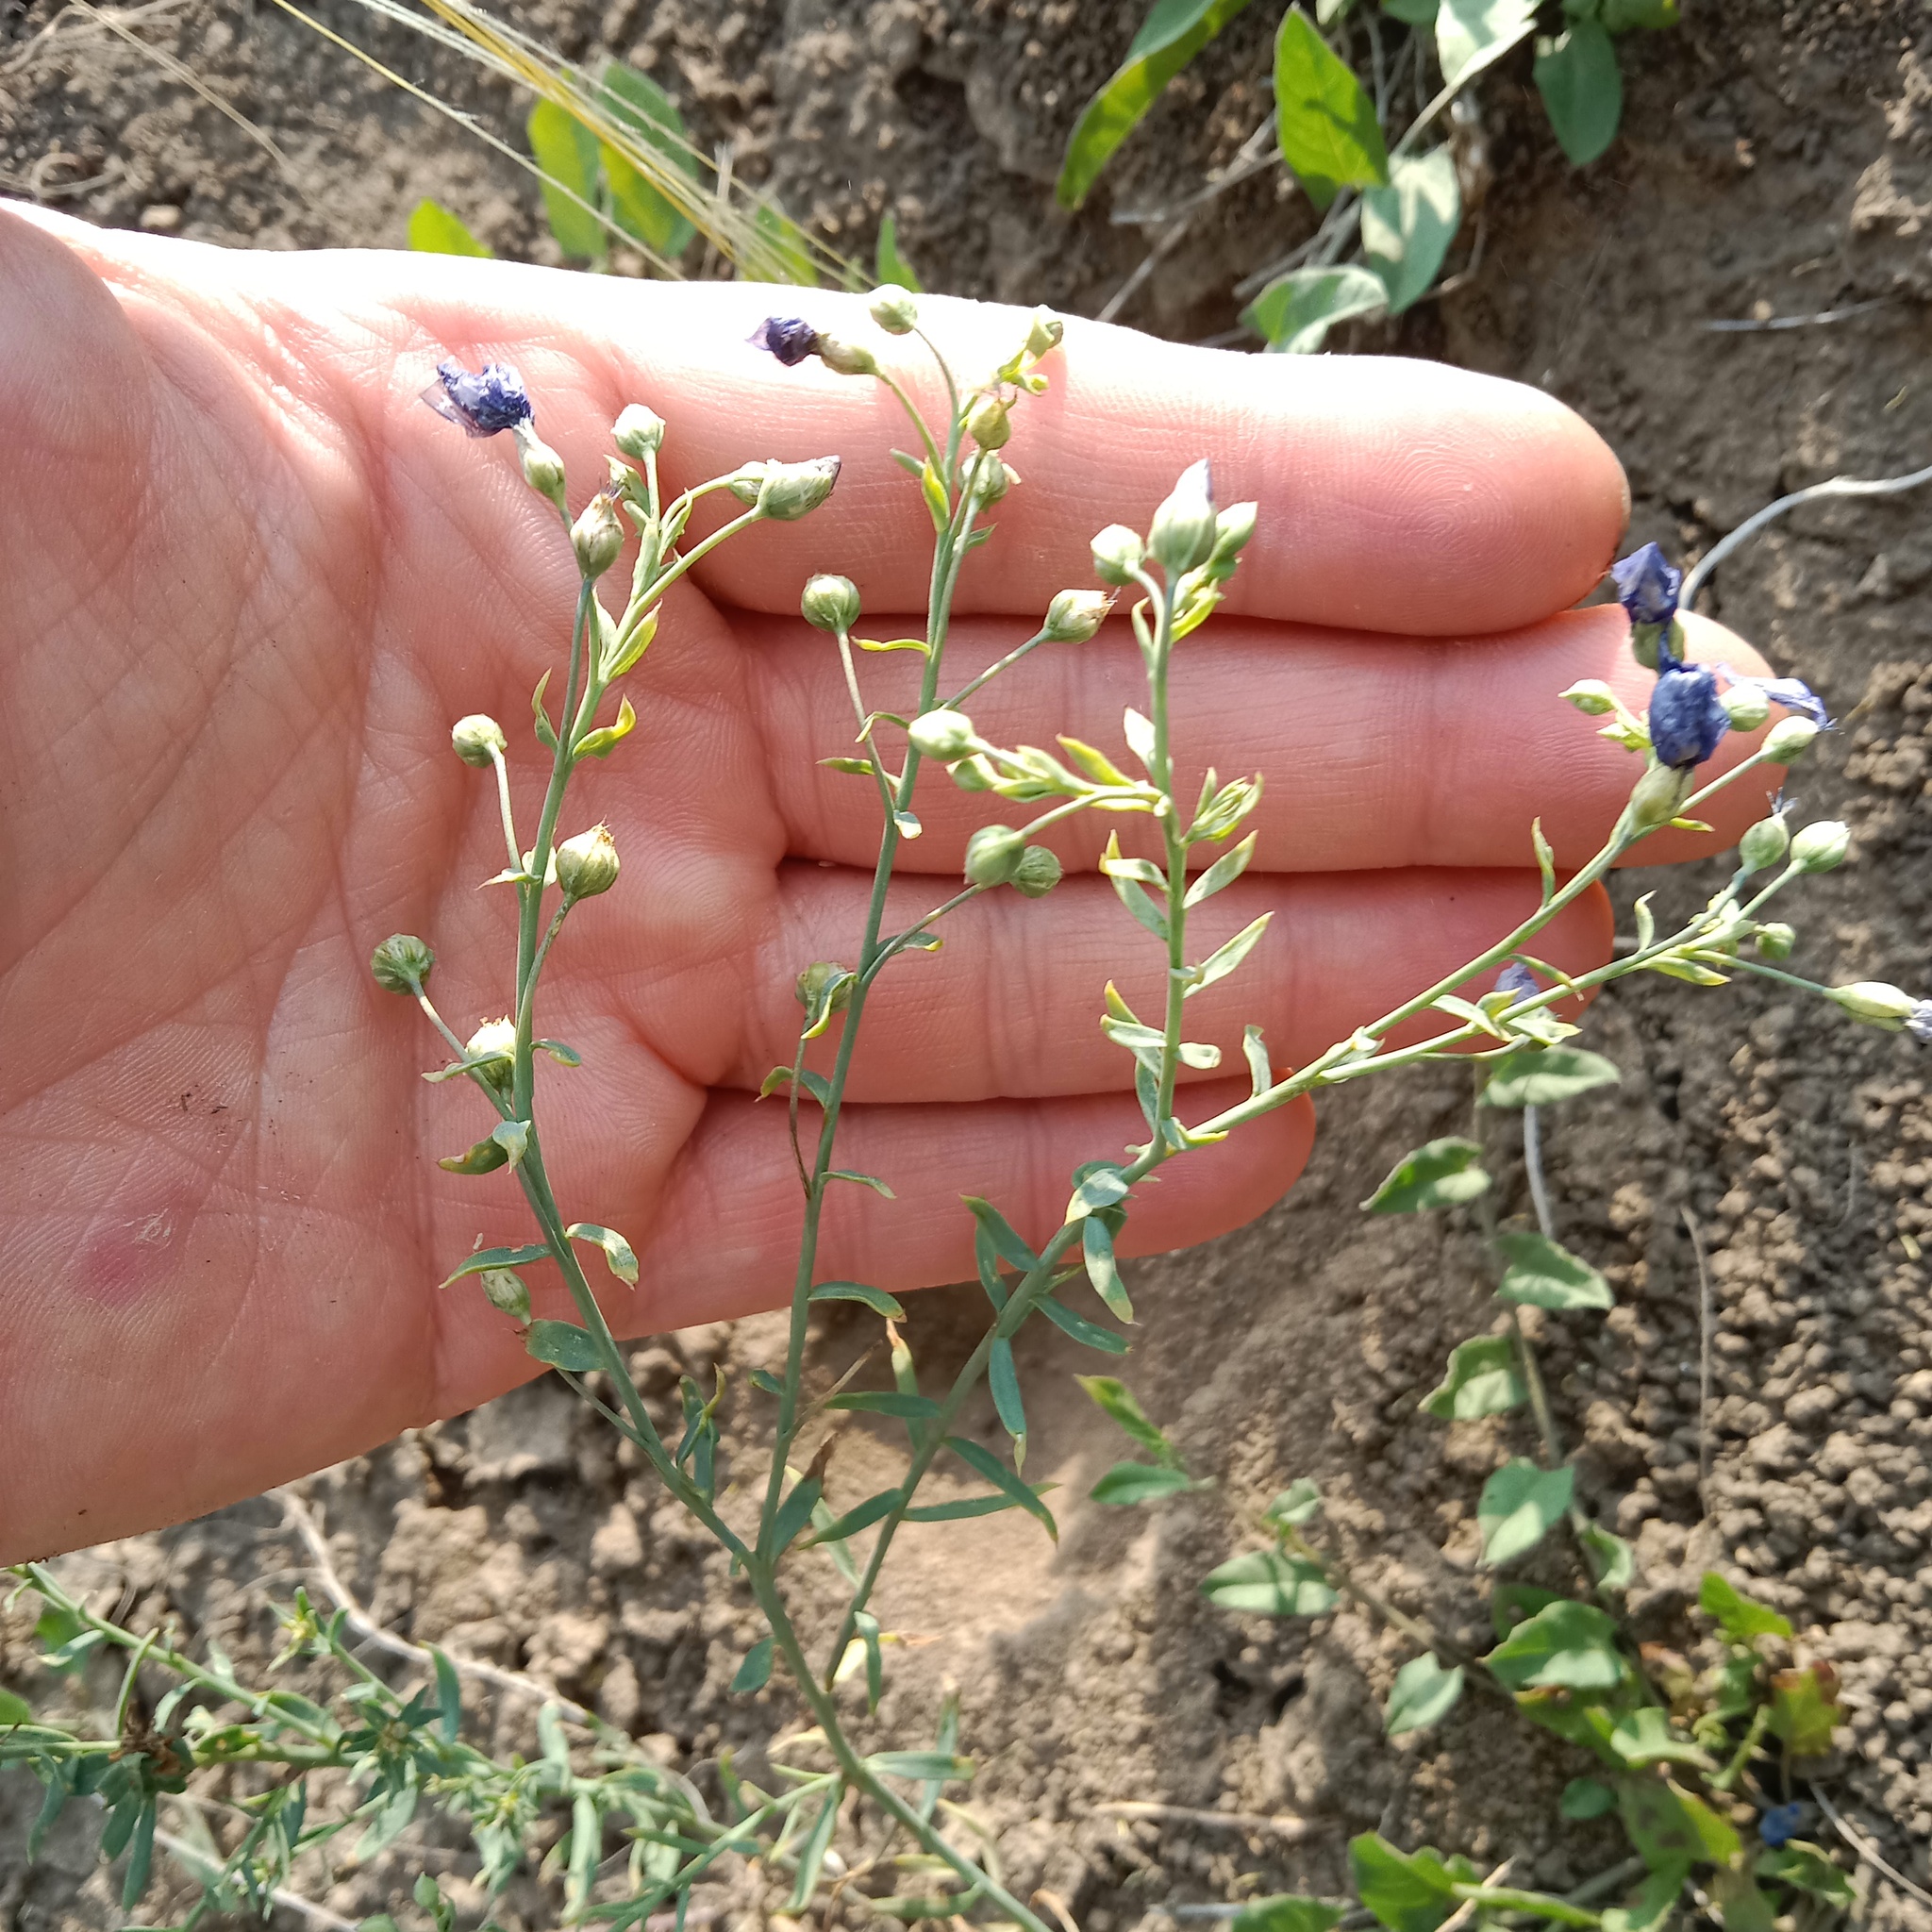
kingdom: Plantae
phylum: Tracheophyta
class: Magnoliopsida
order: Malpighiales
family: Linaceae
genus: Linum
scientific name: Linum austriacum
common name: Austrian flax
